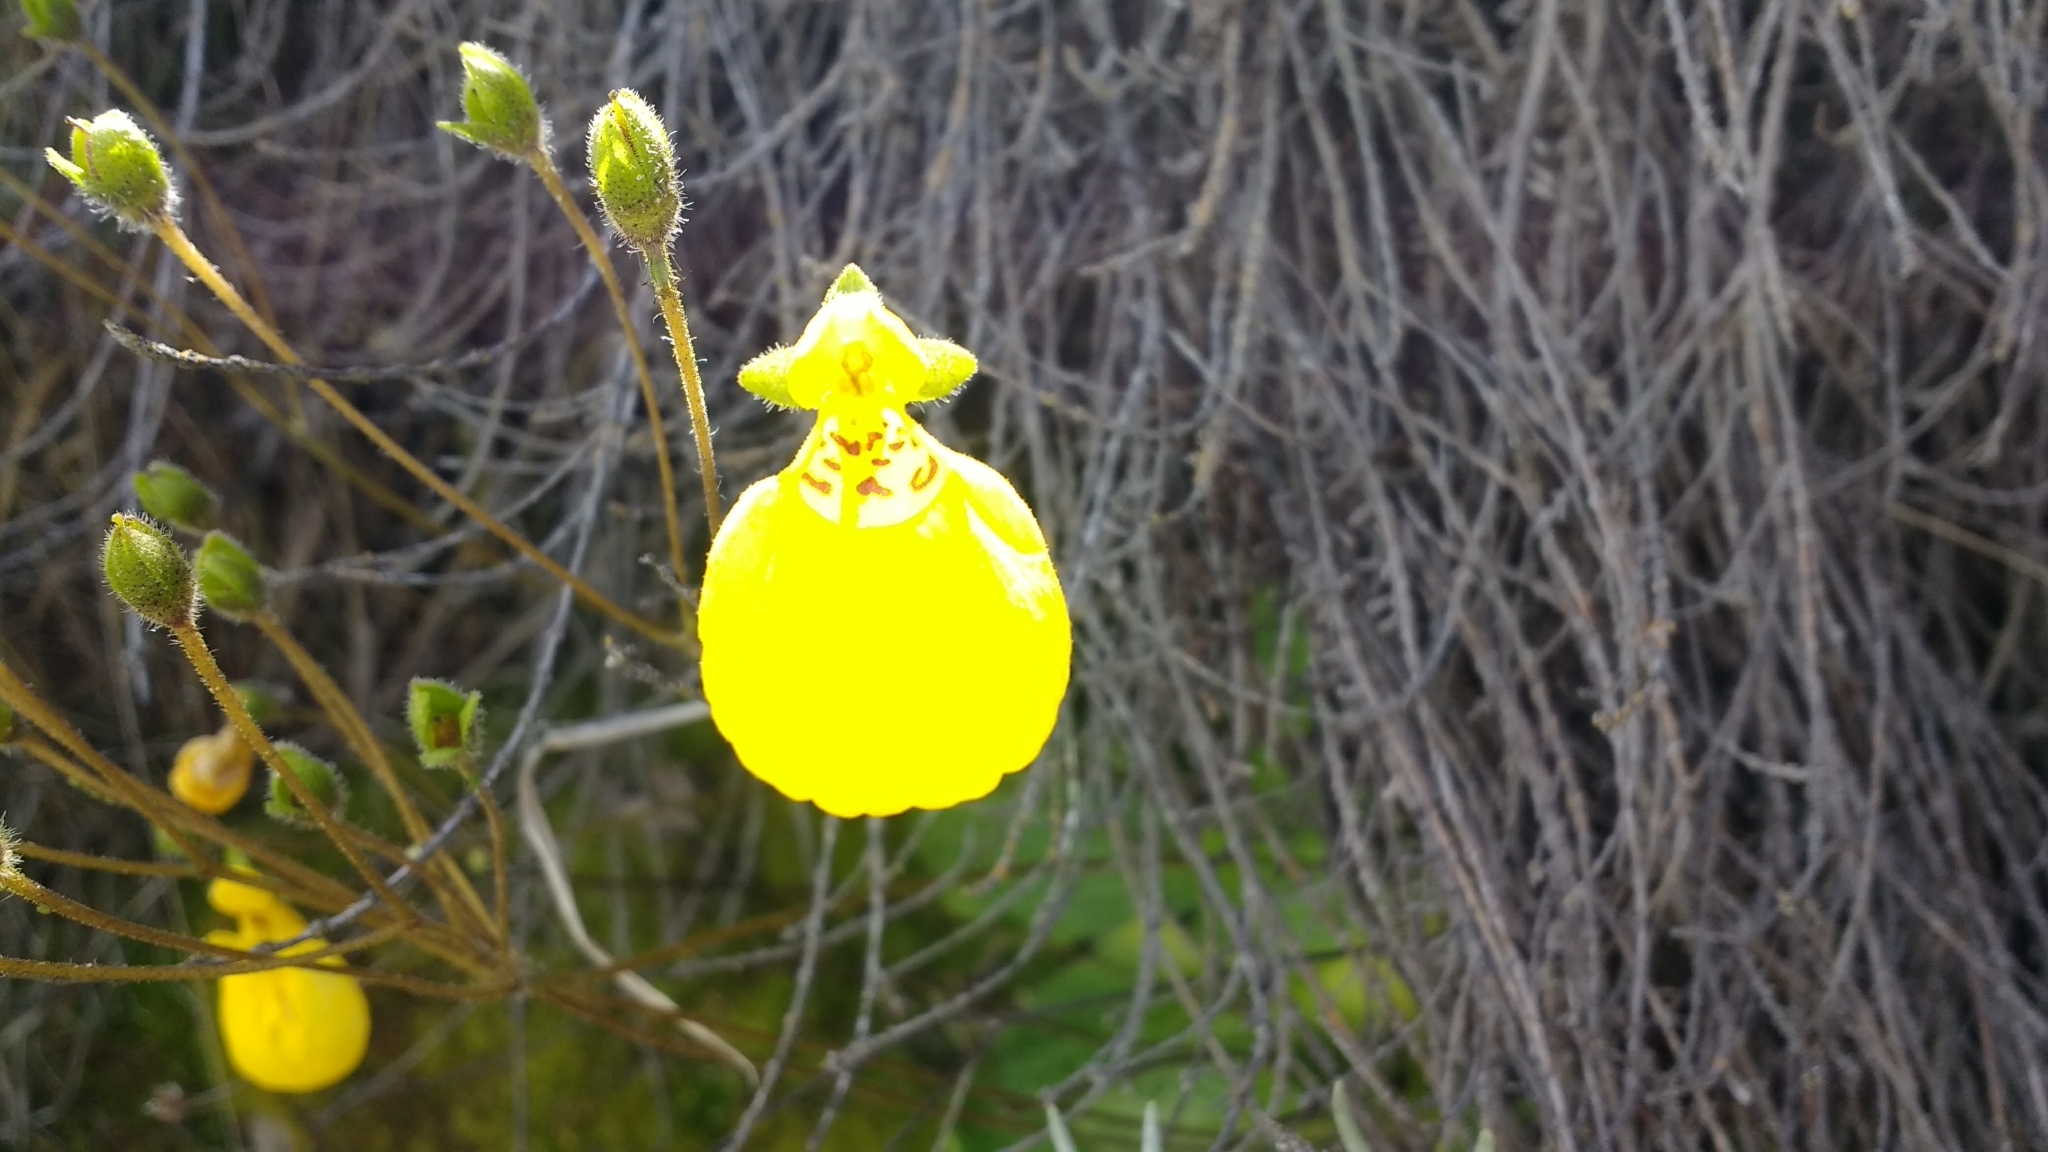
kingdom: Plantae
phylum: Tracheophyta
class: Magnoliopsida
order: Lamiales
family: Calceolariaceae
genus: Calceolaria
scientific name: Calceolaria biflora
